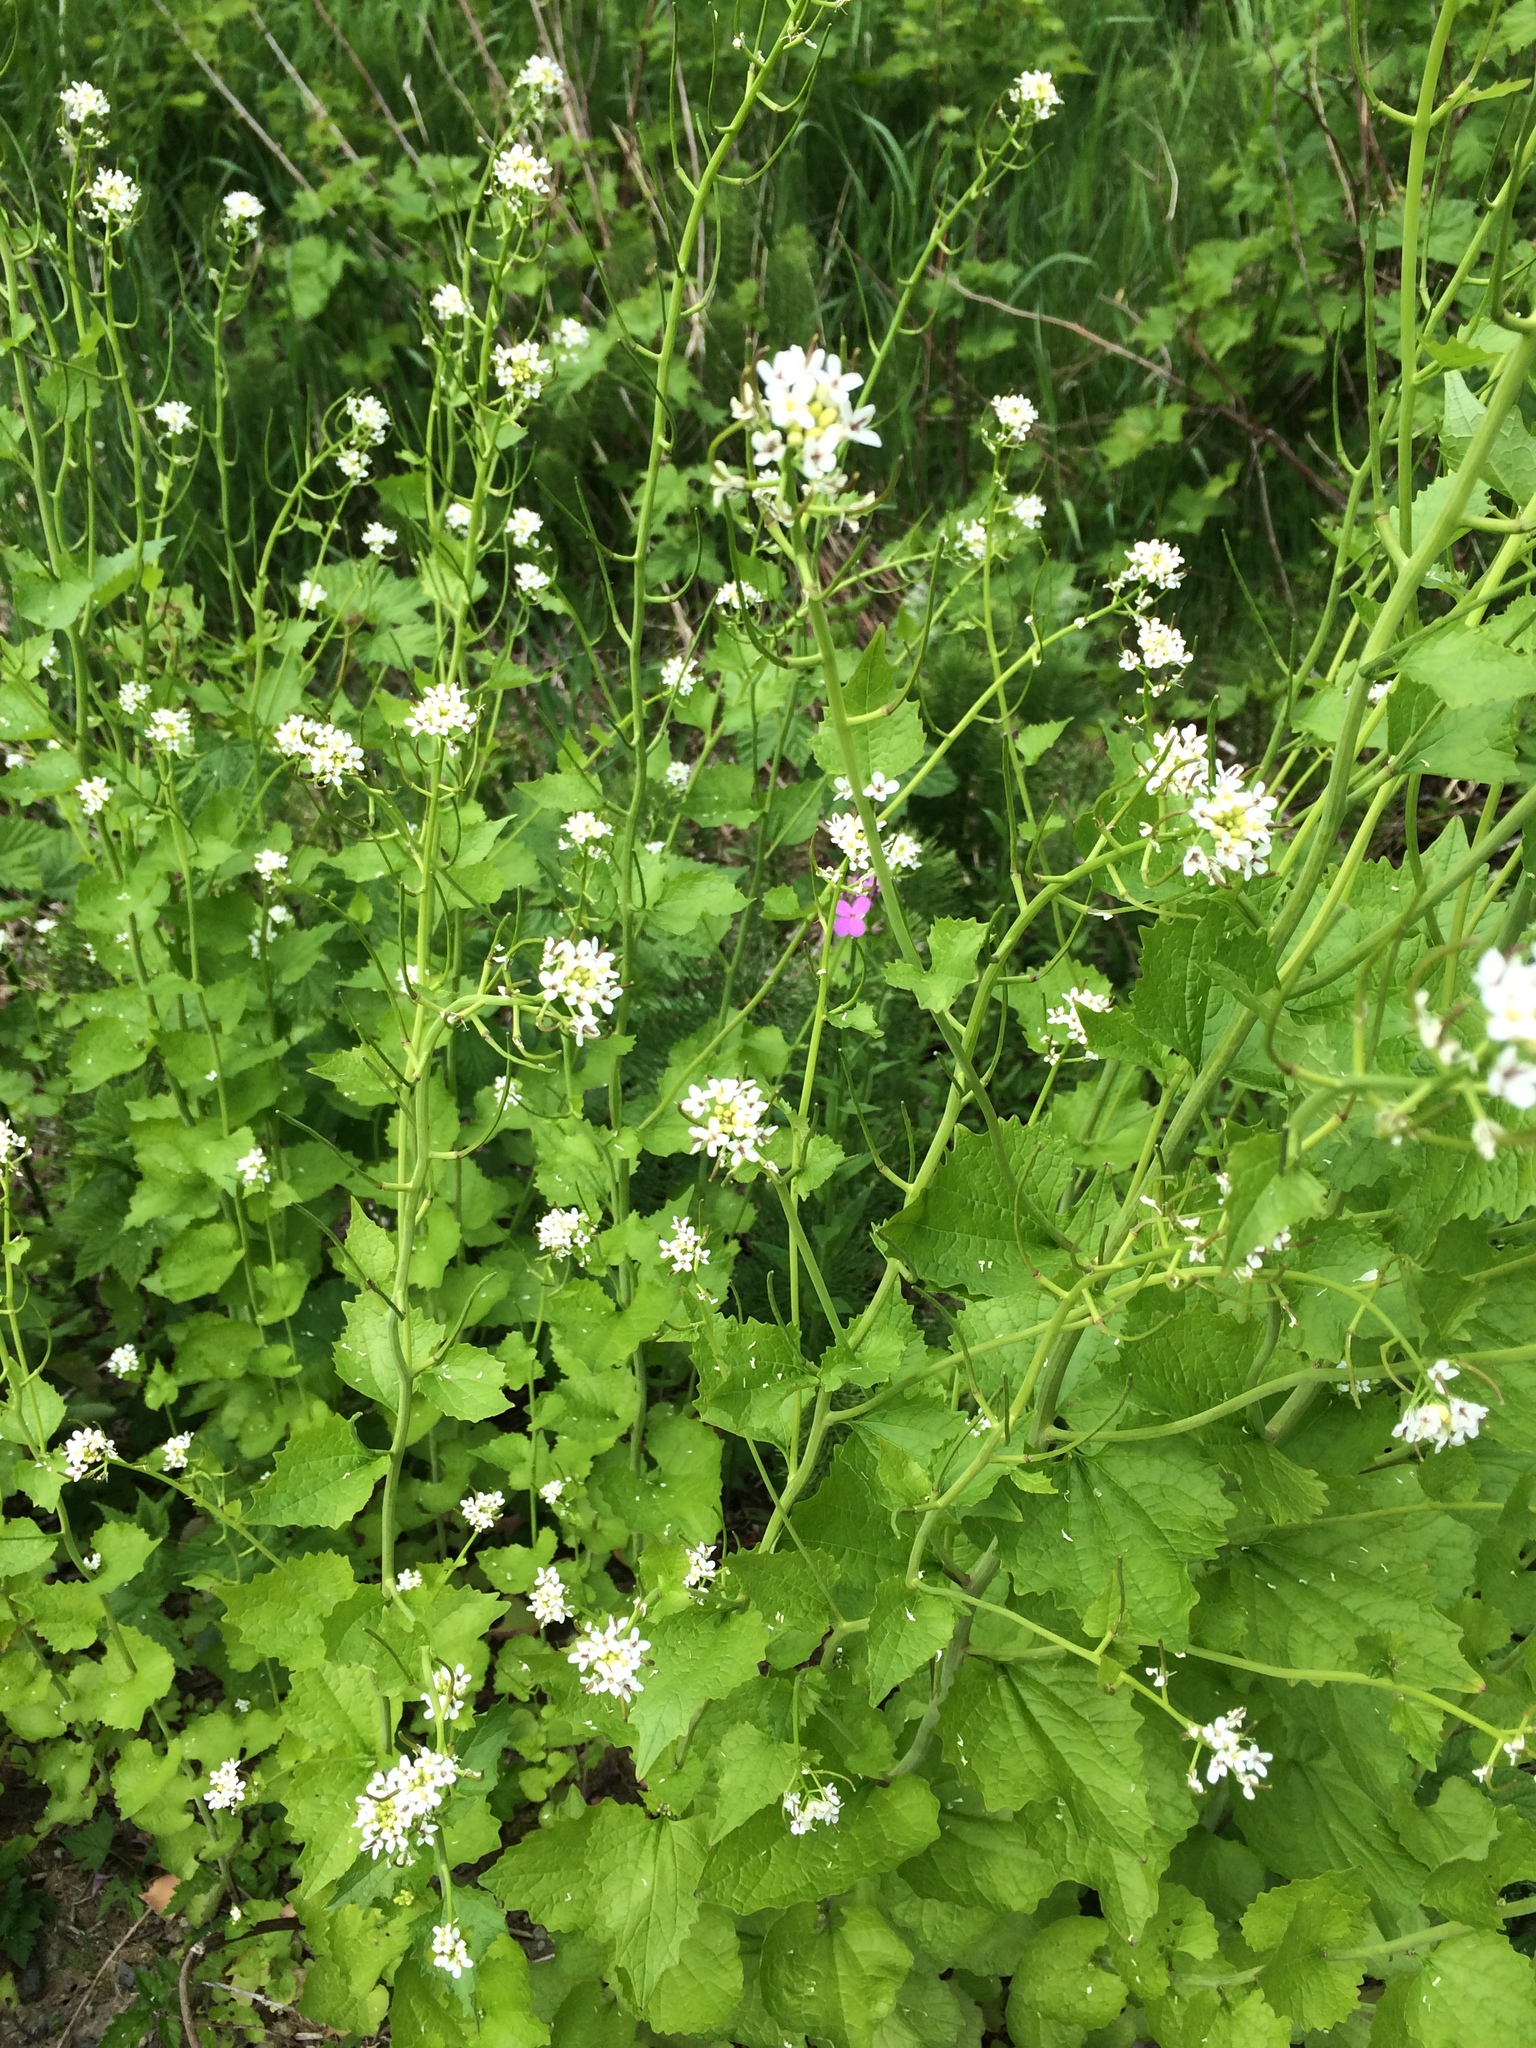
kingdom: Plantae
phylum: Tracheophyta
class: Magnoliopsida
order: Brassicales
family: Brassicaceae
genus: Alliaria
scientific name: Alliaria petiolata
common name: Garlic mustard
